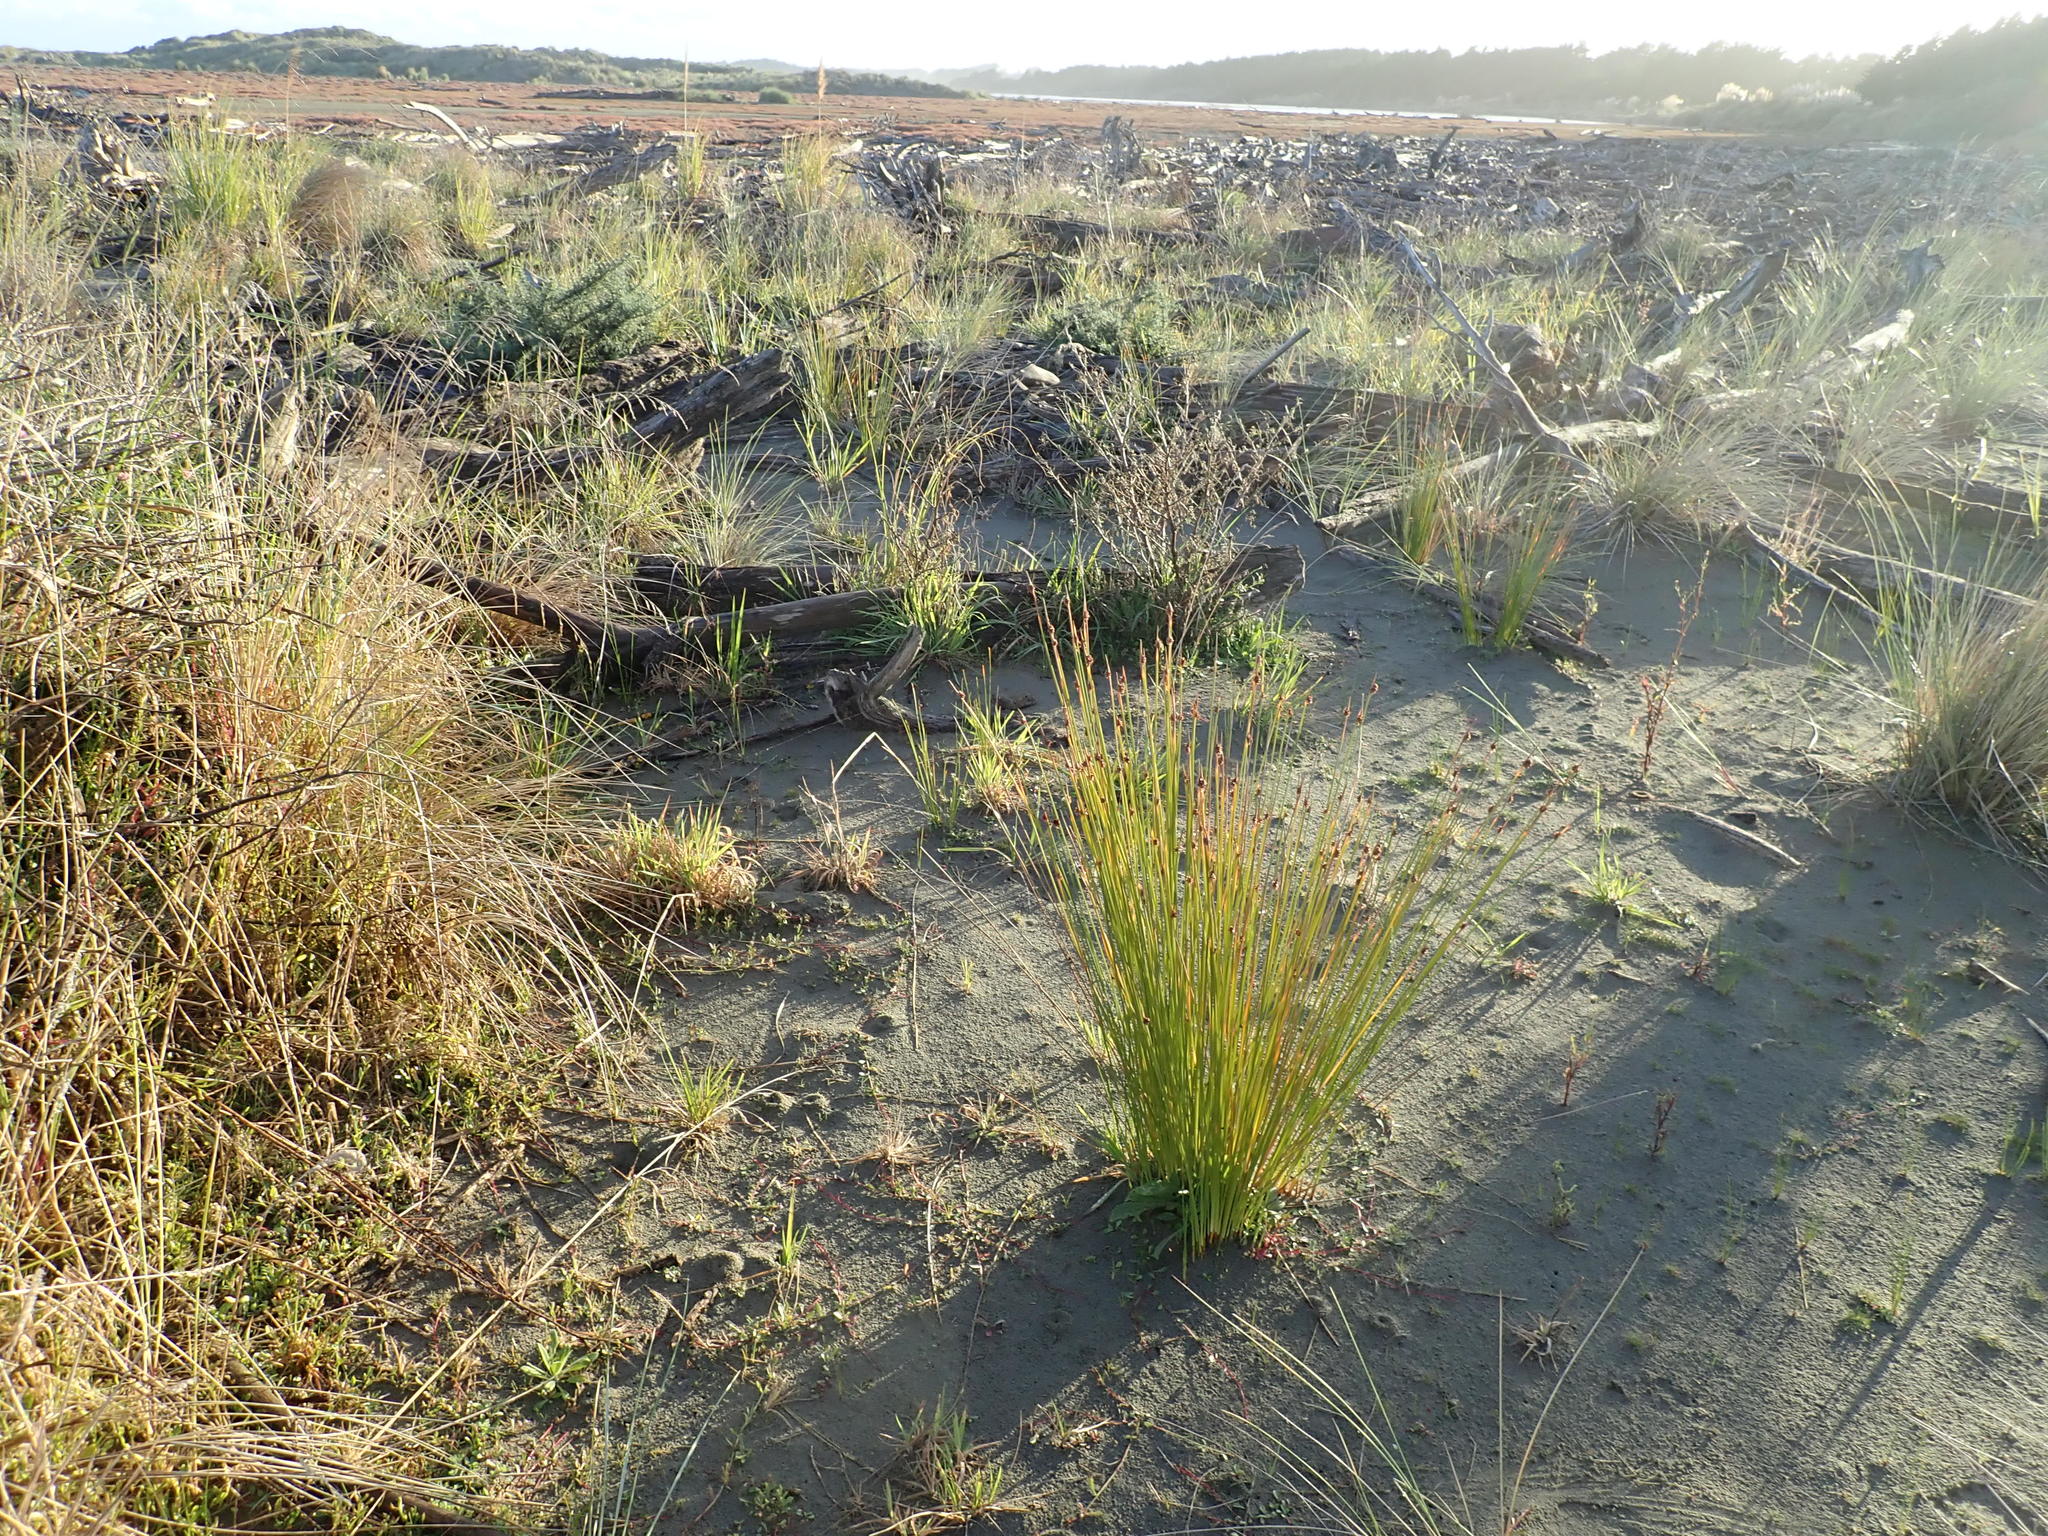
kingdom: Plantae
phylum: Tracheophyta
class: Liliopsida
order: Poales
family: Cyperaceae
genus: Ficinia
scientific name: Ficinia nodosa
